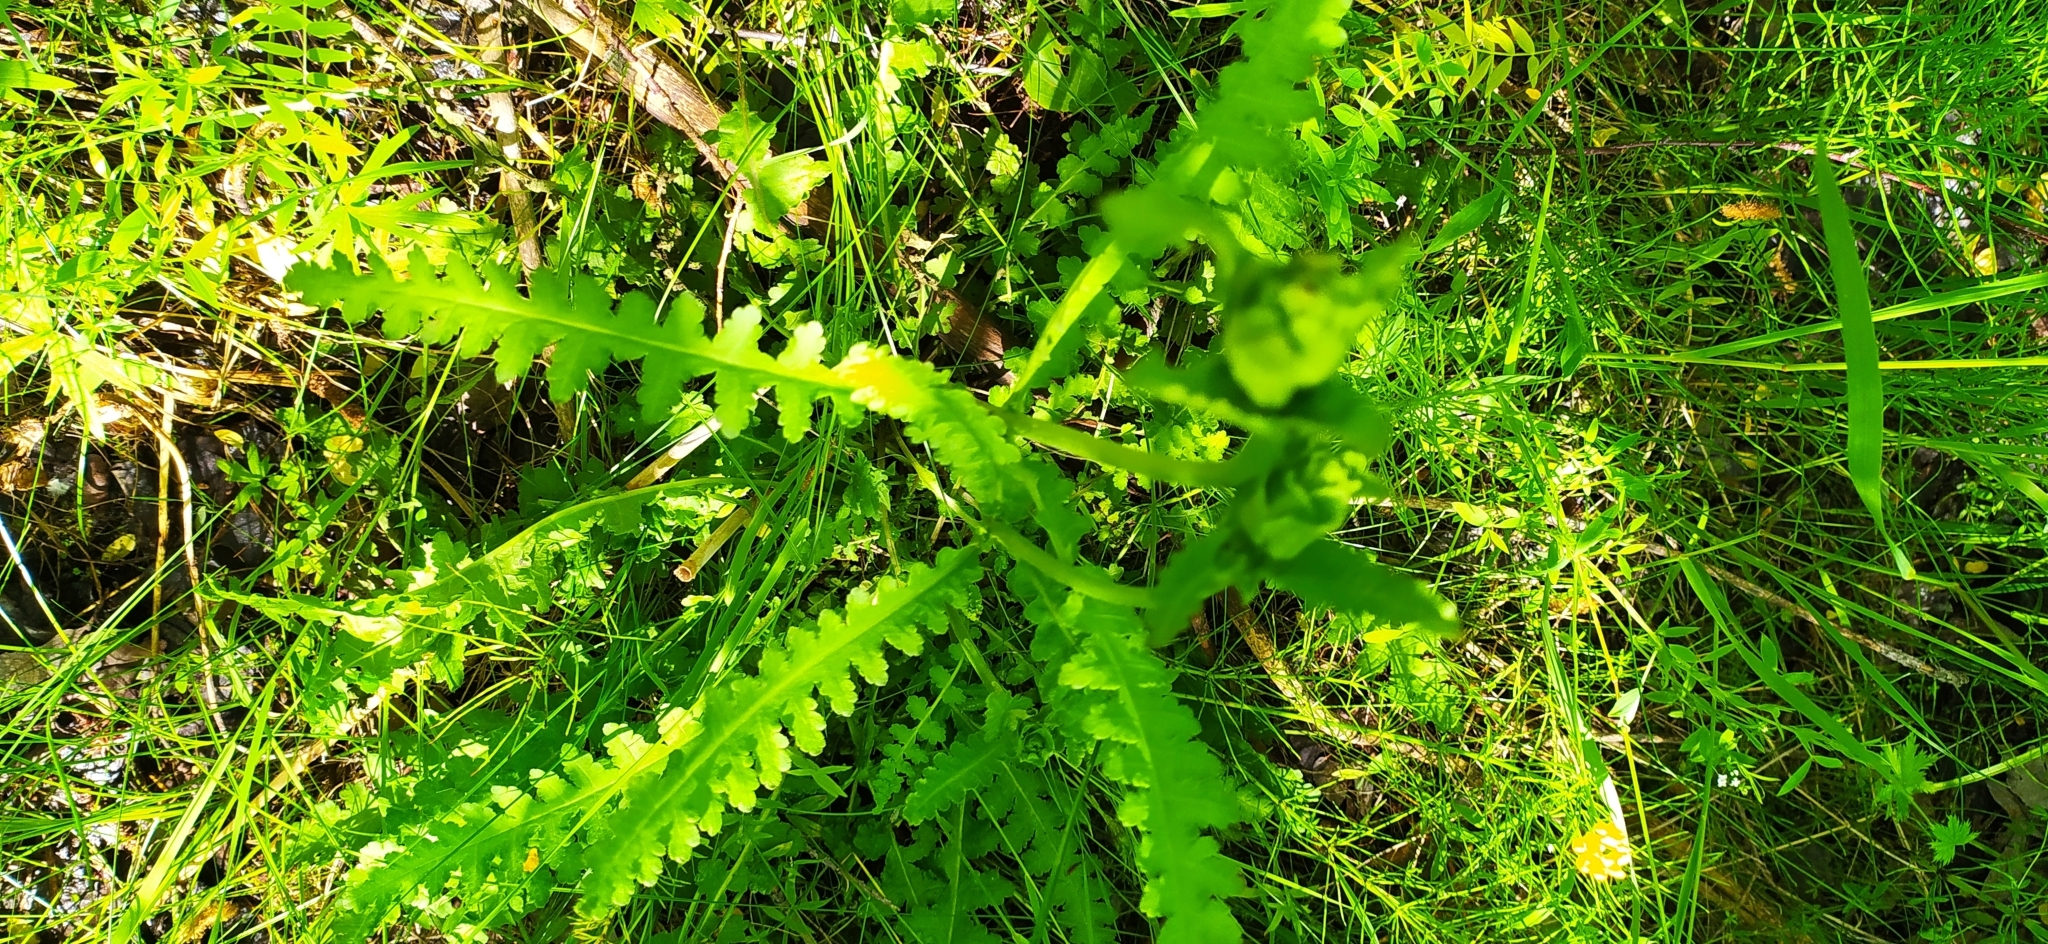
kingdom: Plantae
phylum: Tracheophyta
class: Magnoliopsida
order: Lamiales
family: Orobanchaceae
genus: Pedicularis
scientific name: Pedicularis sceptrum-carolinum
